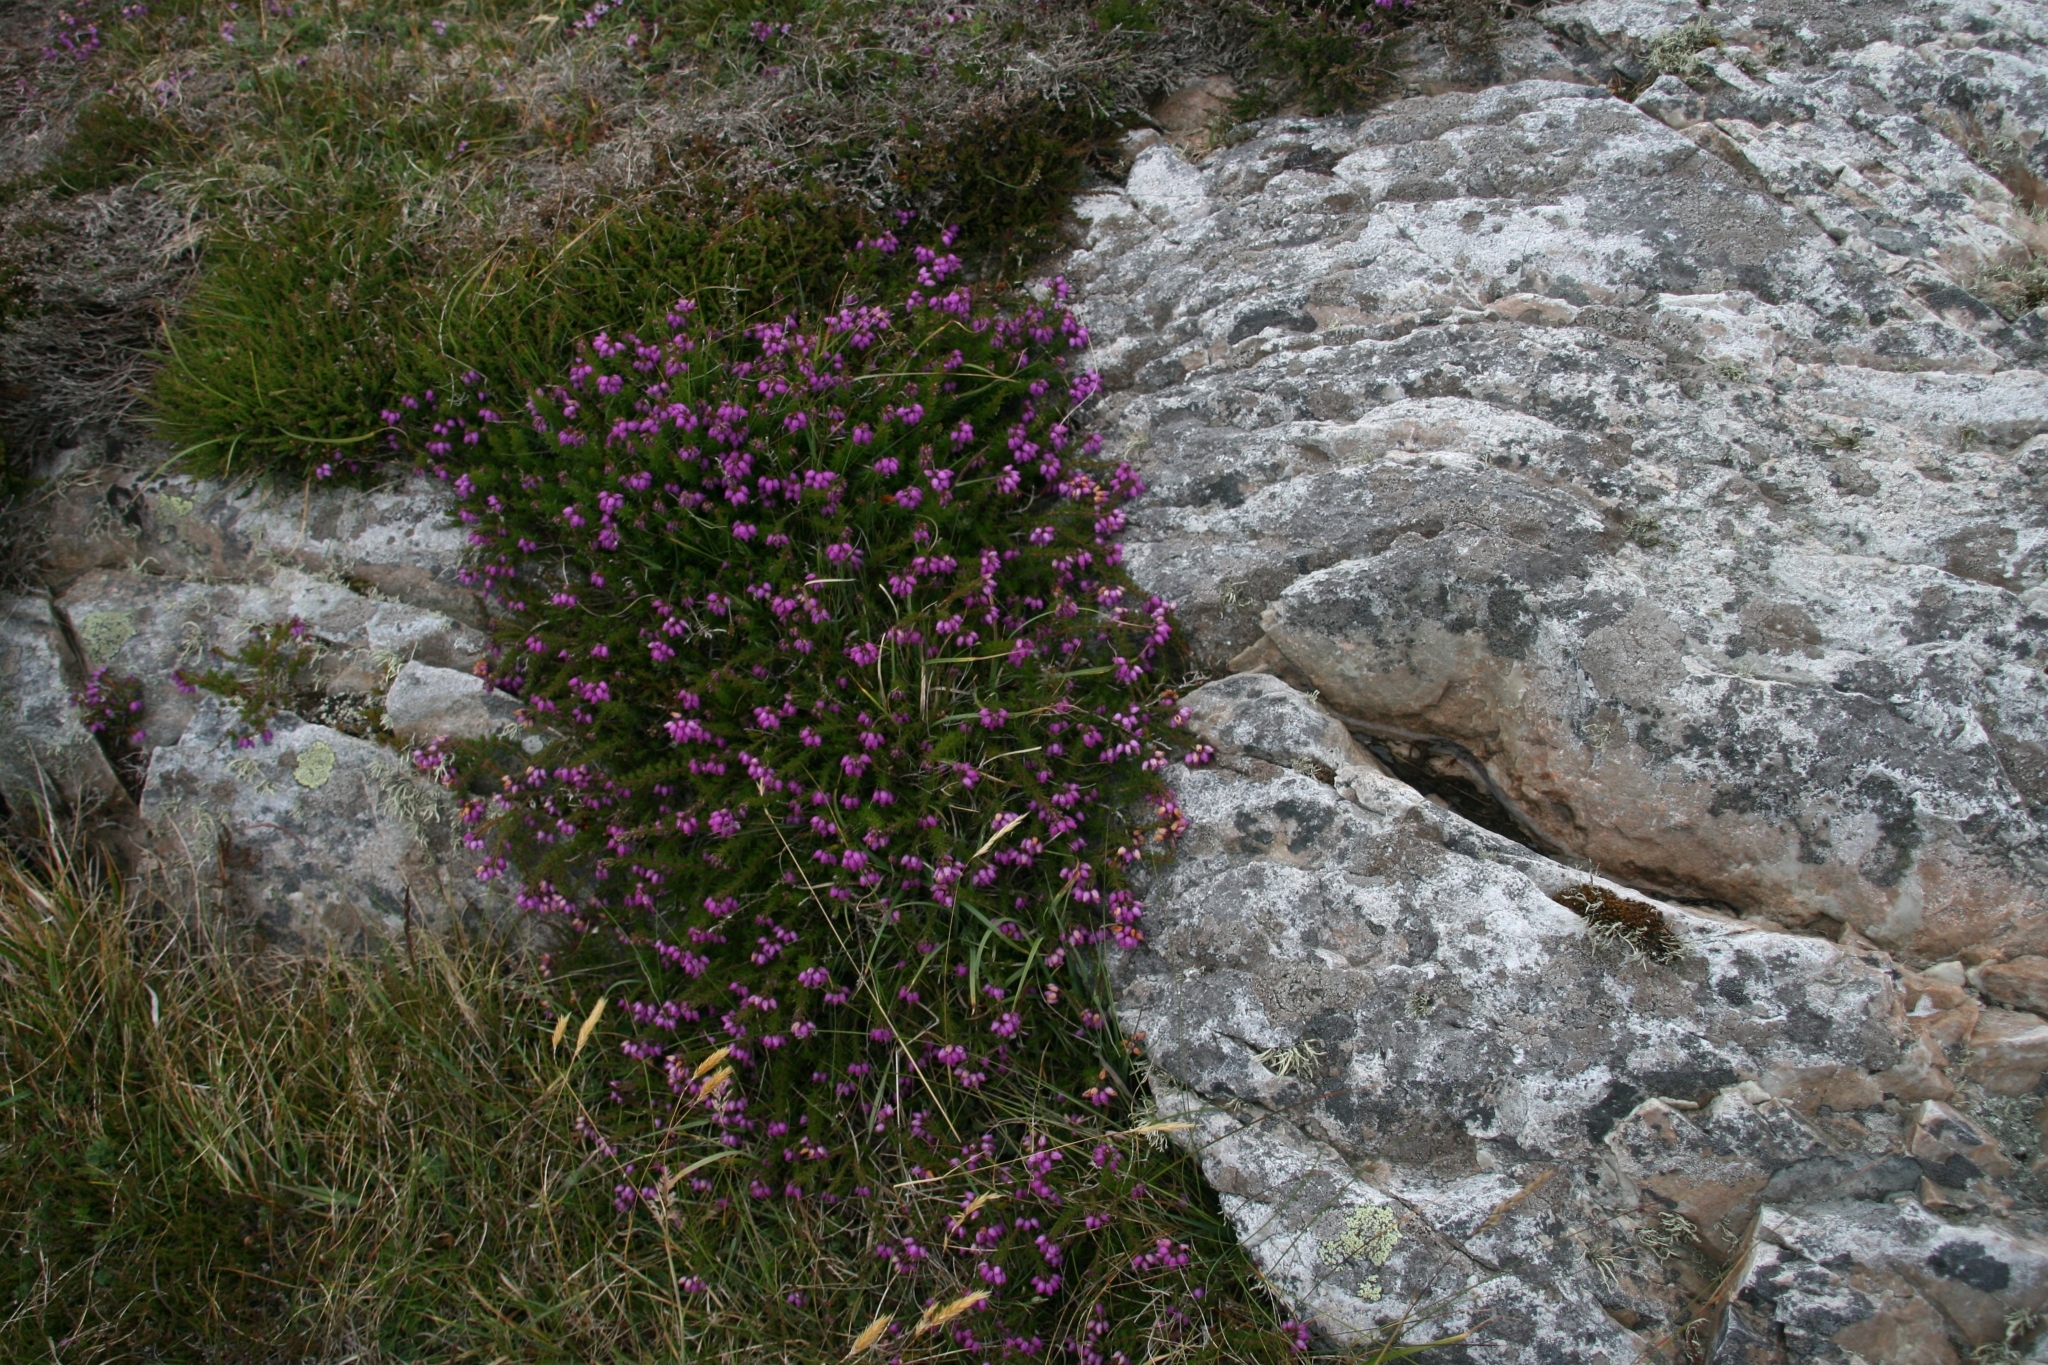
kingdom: Plantae
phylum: Tracheophyta
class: Magnoliopsida
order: Ericales
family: Ericaceae
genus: Erica
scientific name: Erica cinerea
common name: Bell heather
